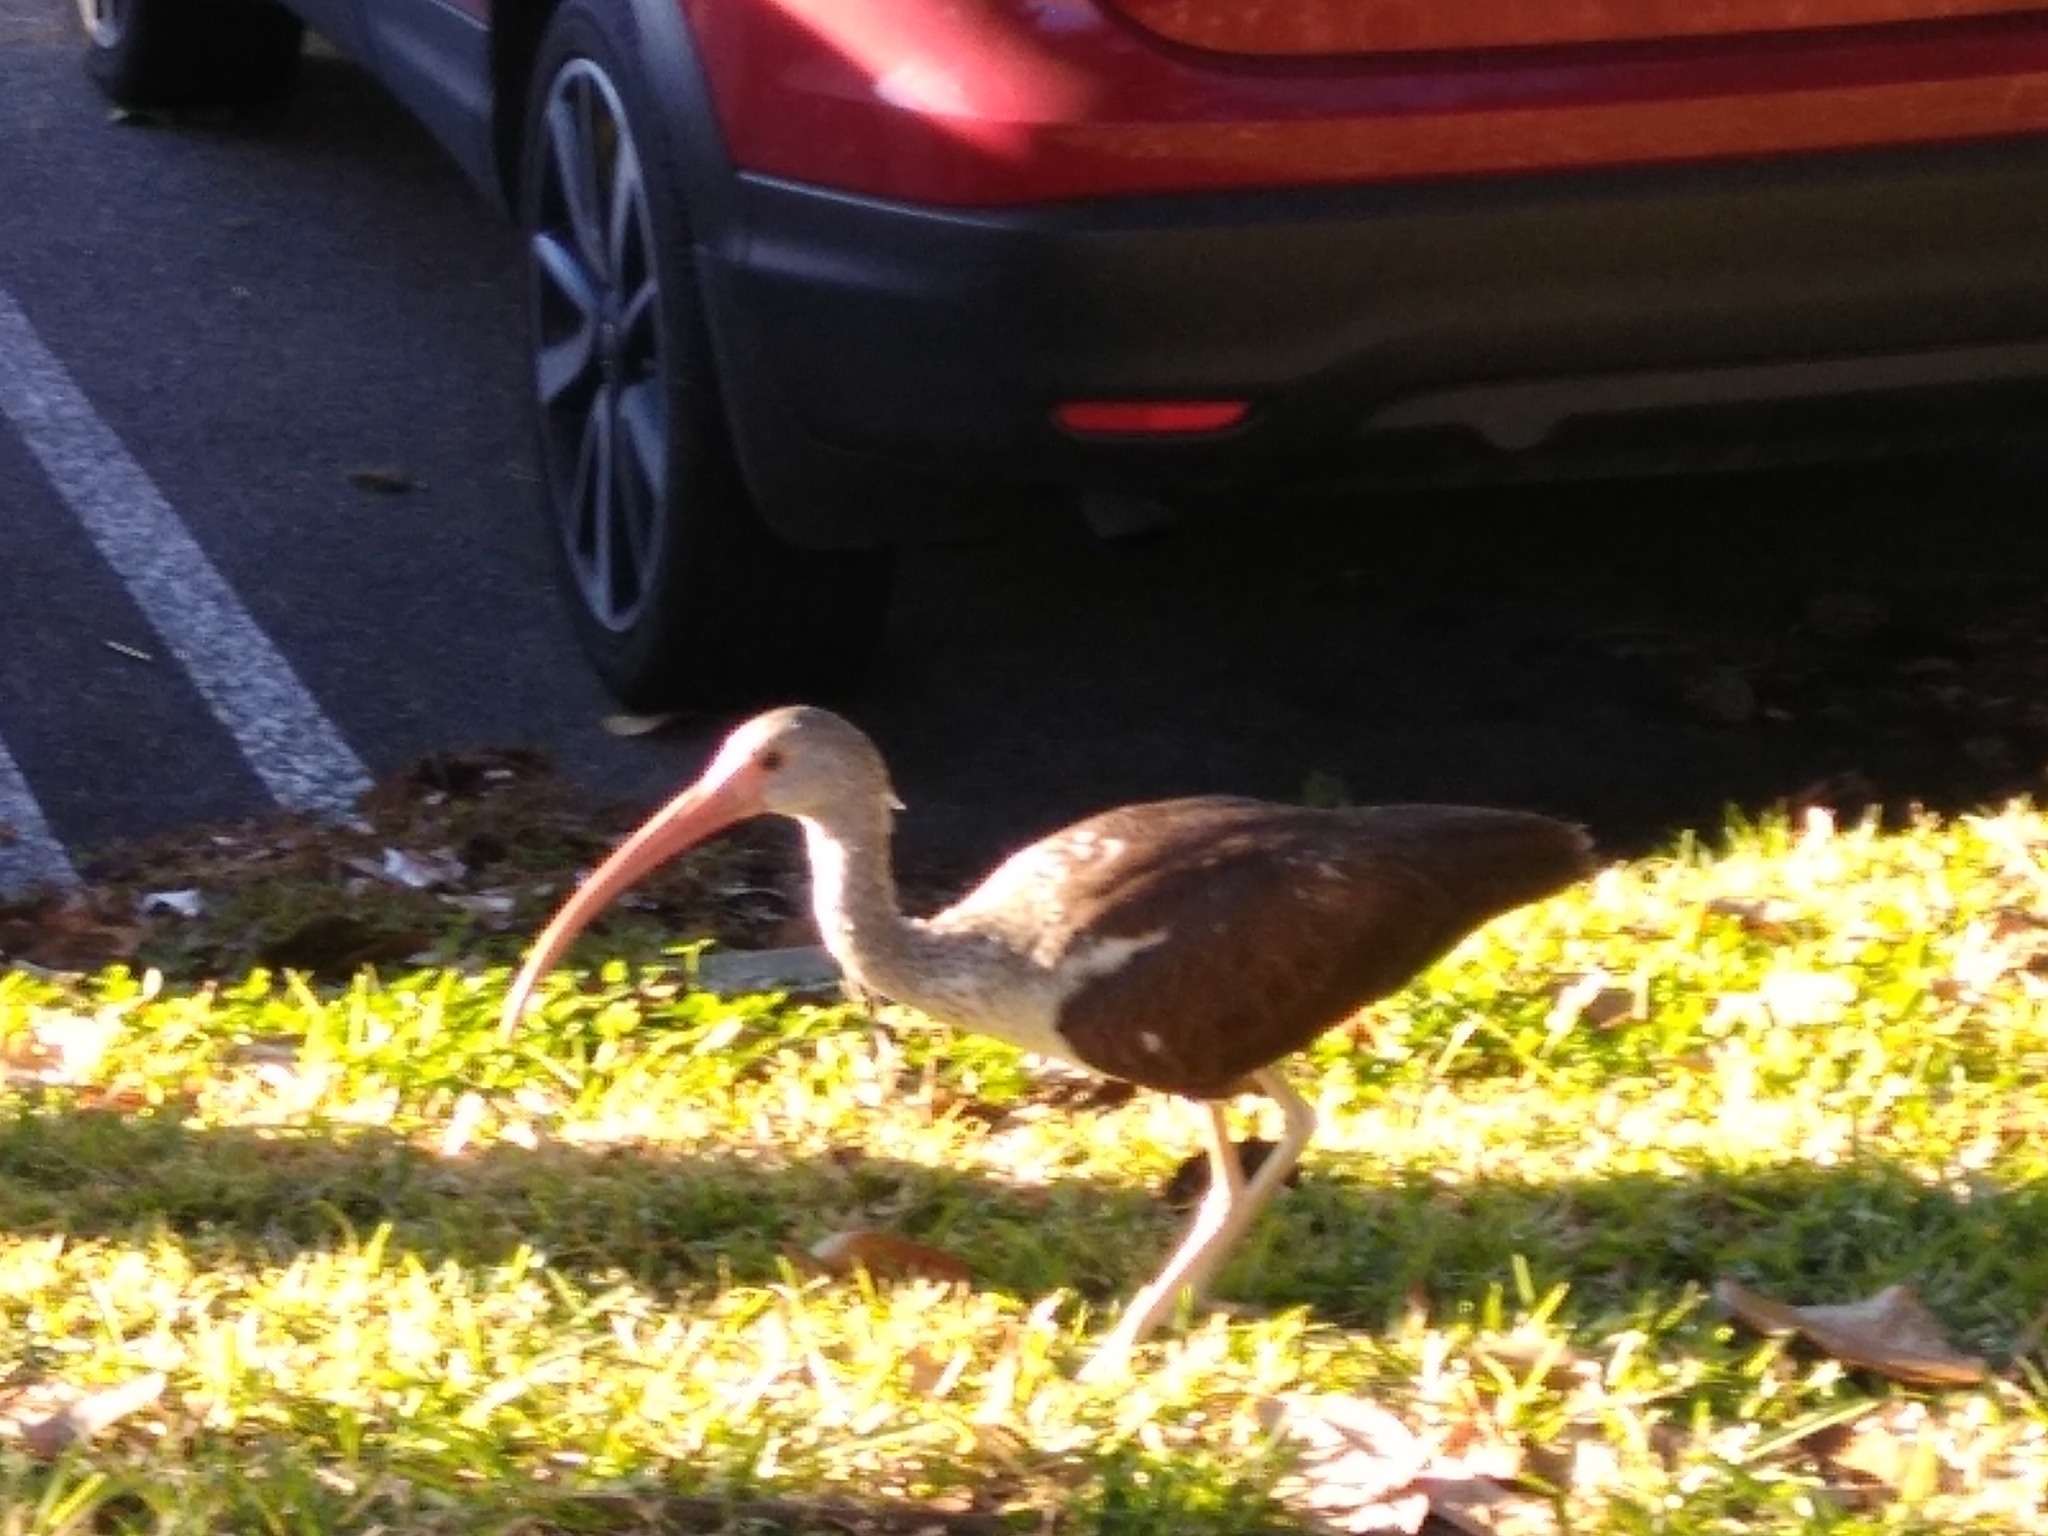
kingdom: Animalia
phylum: Chordata
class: Aves
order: Pelecaniformes
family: Threskiornithidae
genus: Eudocimus
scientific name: Eudocimus albus
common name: White ibis
